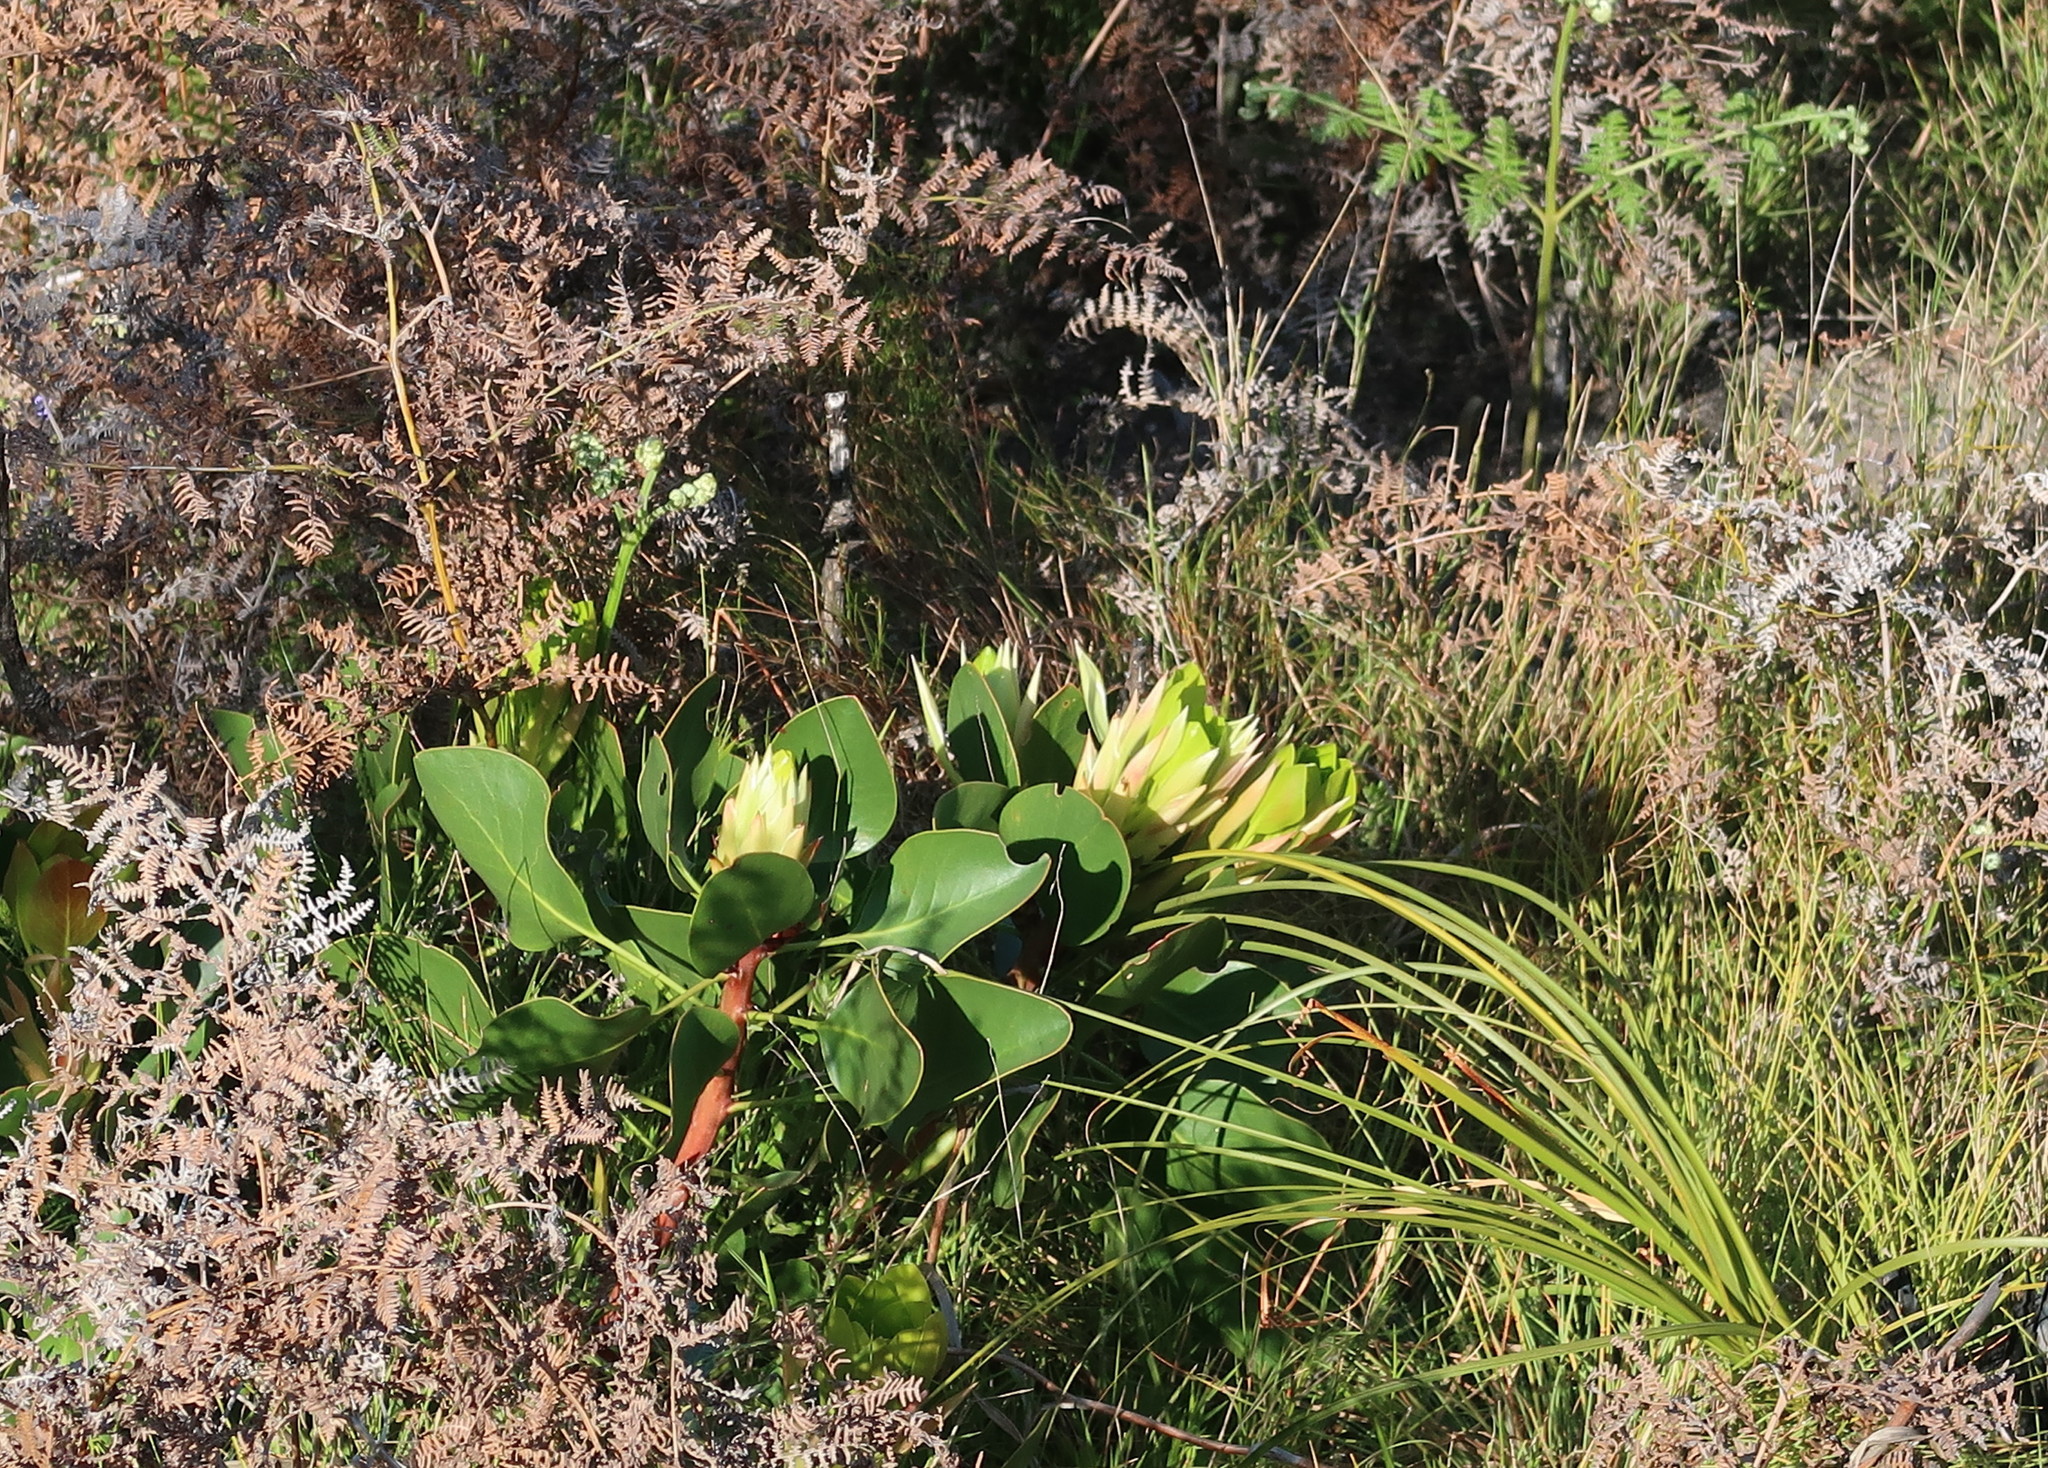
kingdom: Plantae
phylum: Tracheophyta
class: Magnoliopsida
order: Proteales
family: Proteaceae
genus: Protea
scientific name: Protea cynaroides
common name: King protea
